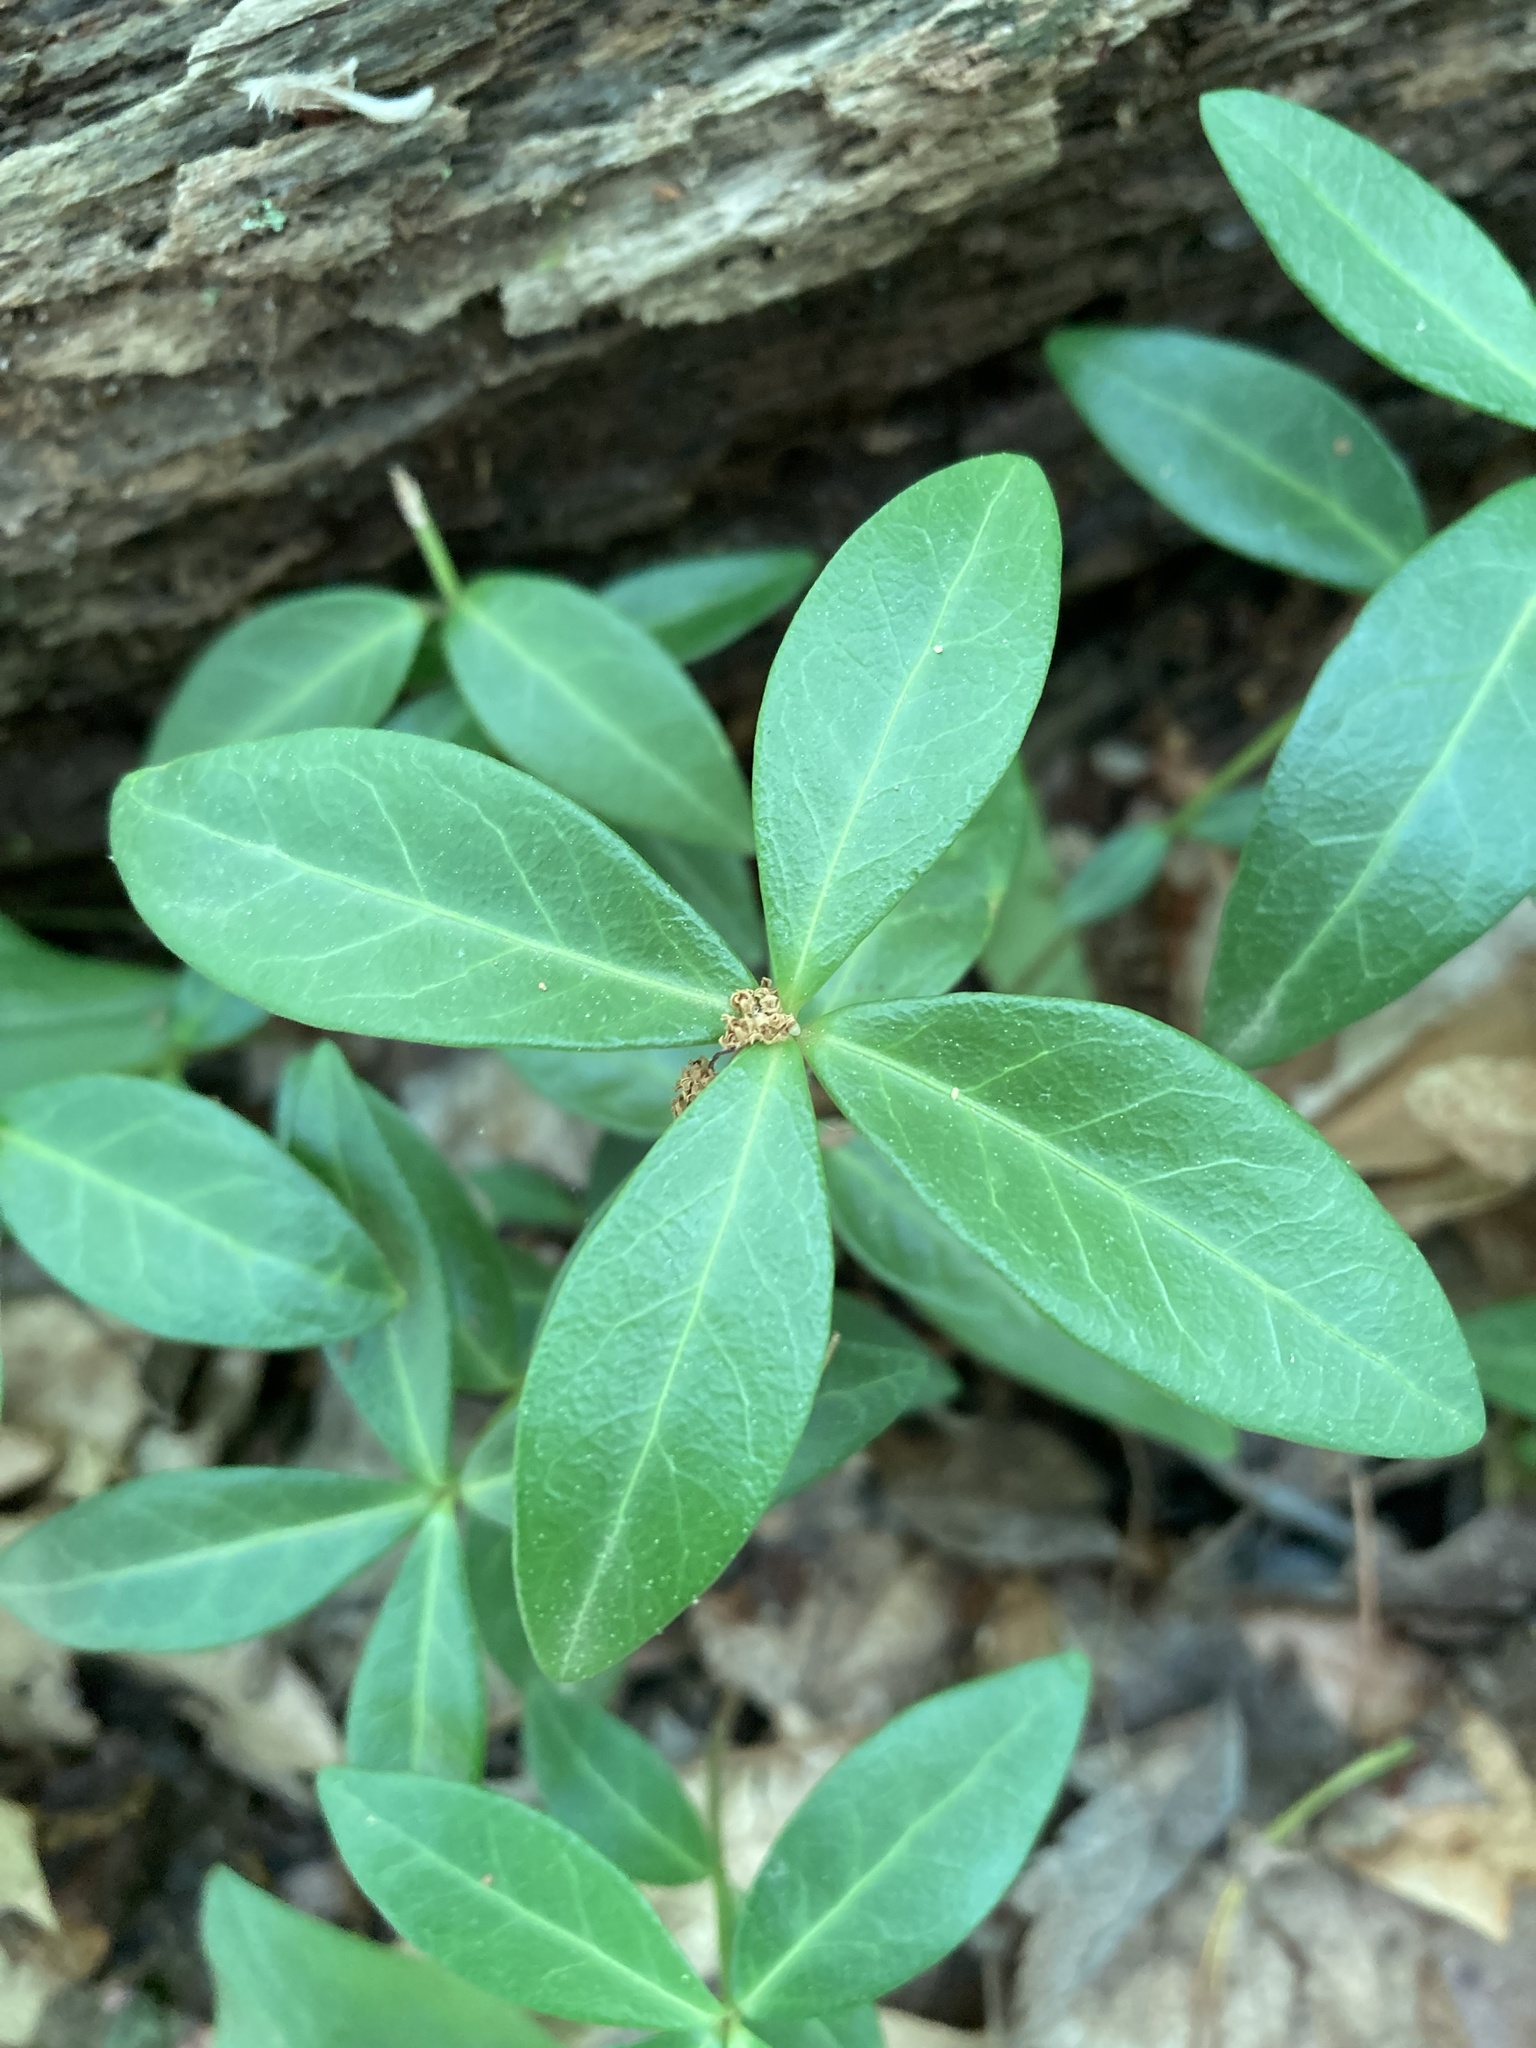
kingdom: Plantae
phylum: Tracheophyta
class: Magnoliopsida
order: Gentianales
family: Apocynaceae
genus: Vinca
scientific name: Vinca minor
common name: Lesser periwinkle
